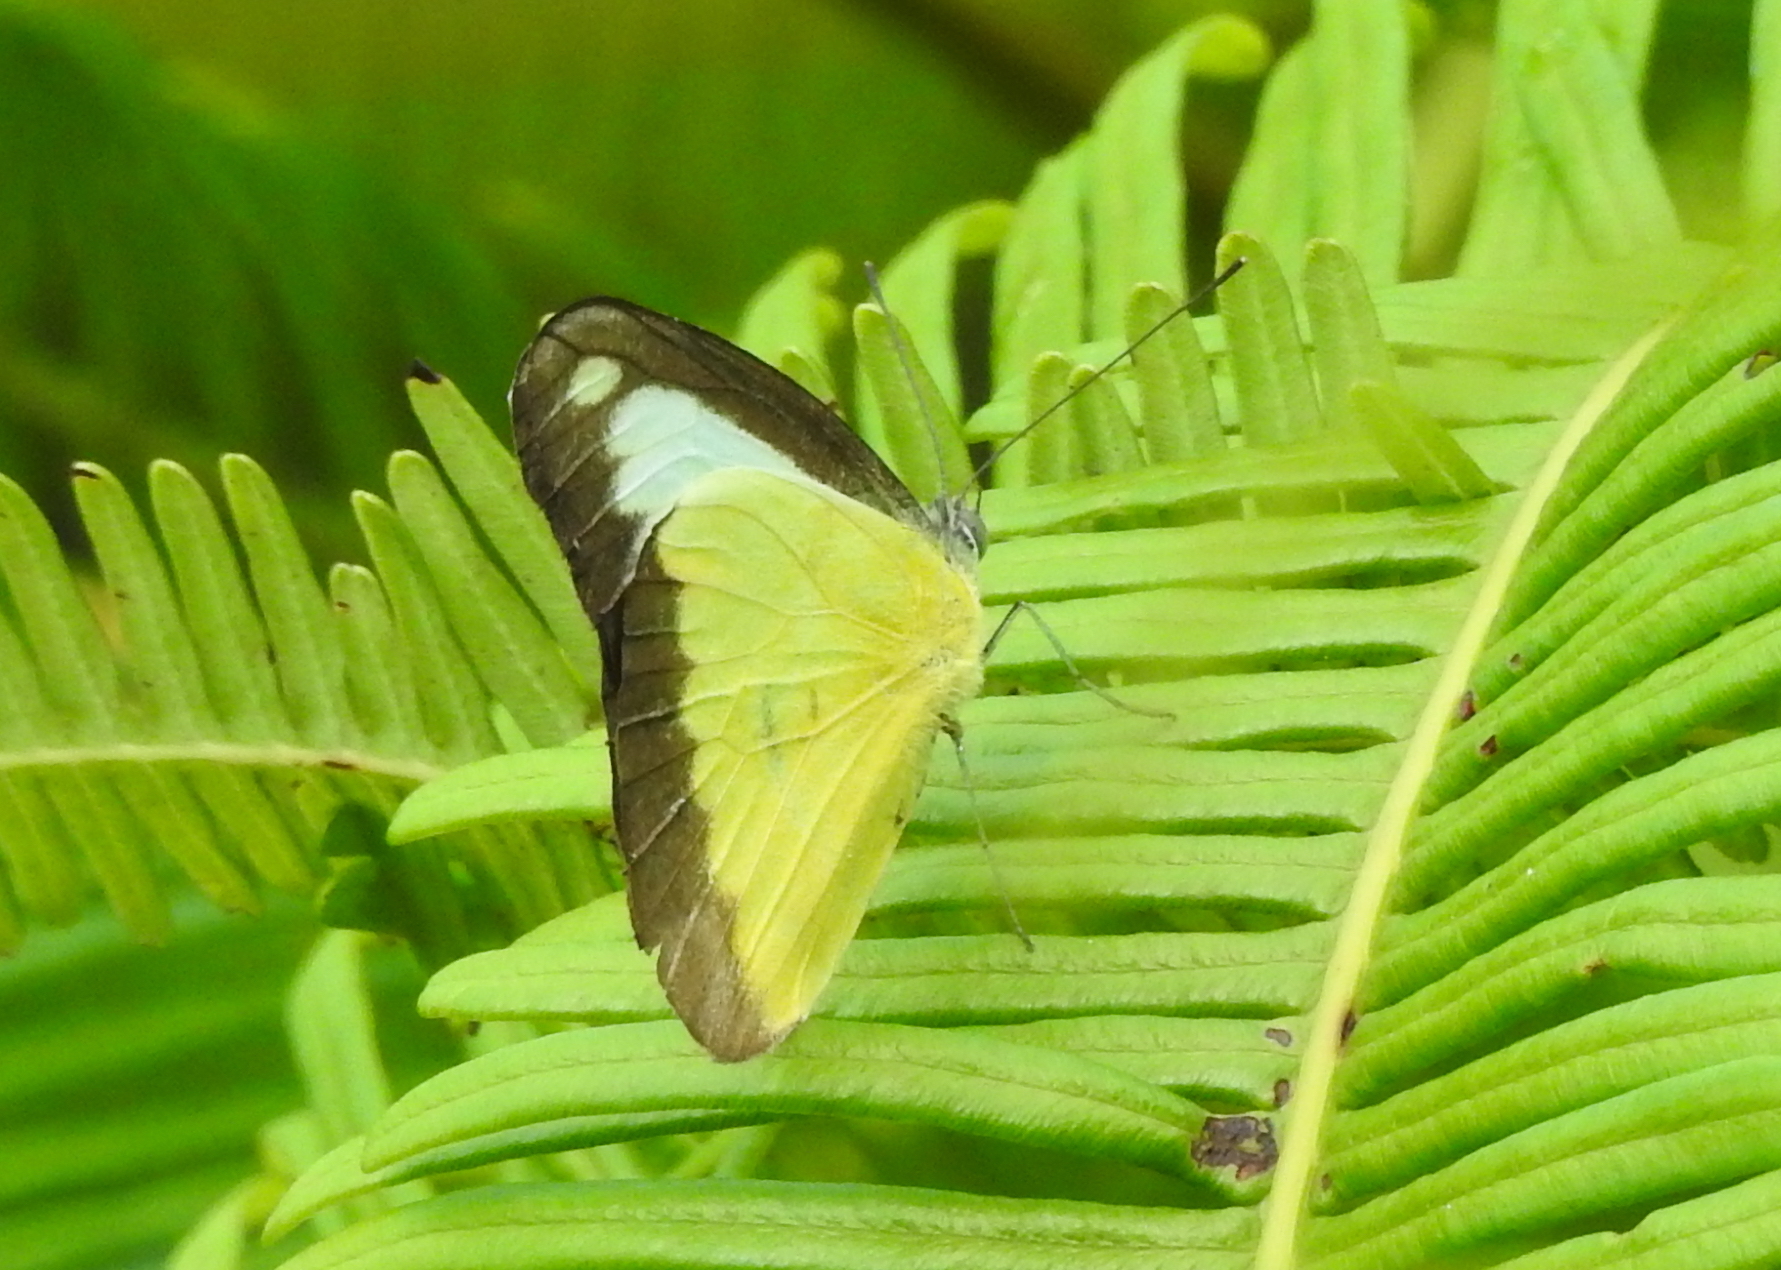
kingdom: Animalia
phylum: Arthropoda
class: Insecta
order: Lepidoptera
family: Pieridae
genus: Appias
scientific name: Appias lyncida
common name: Chocolate albatross
